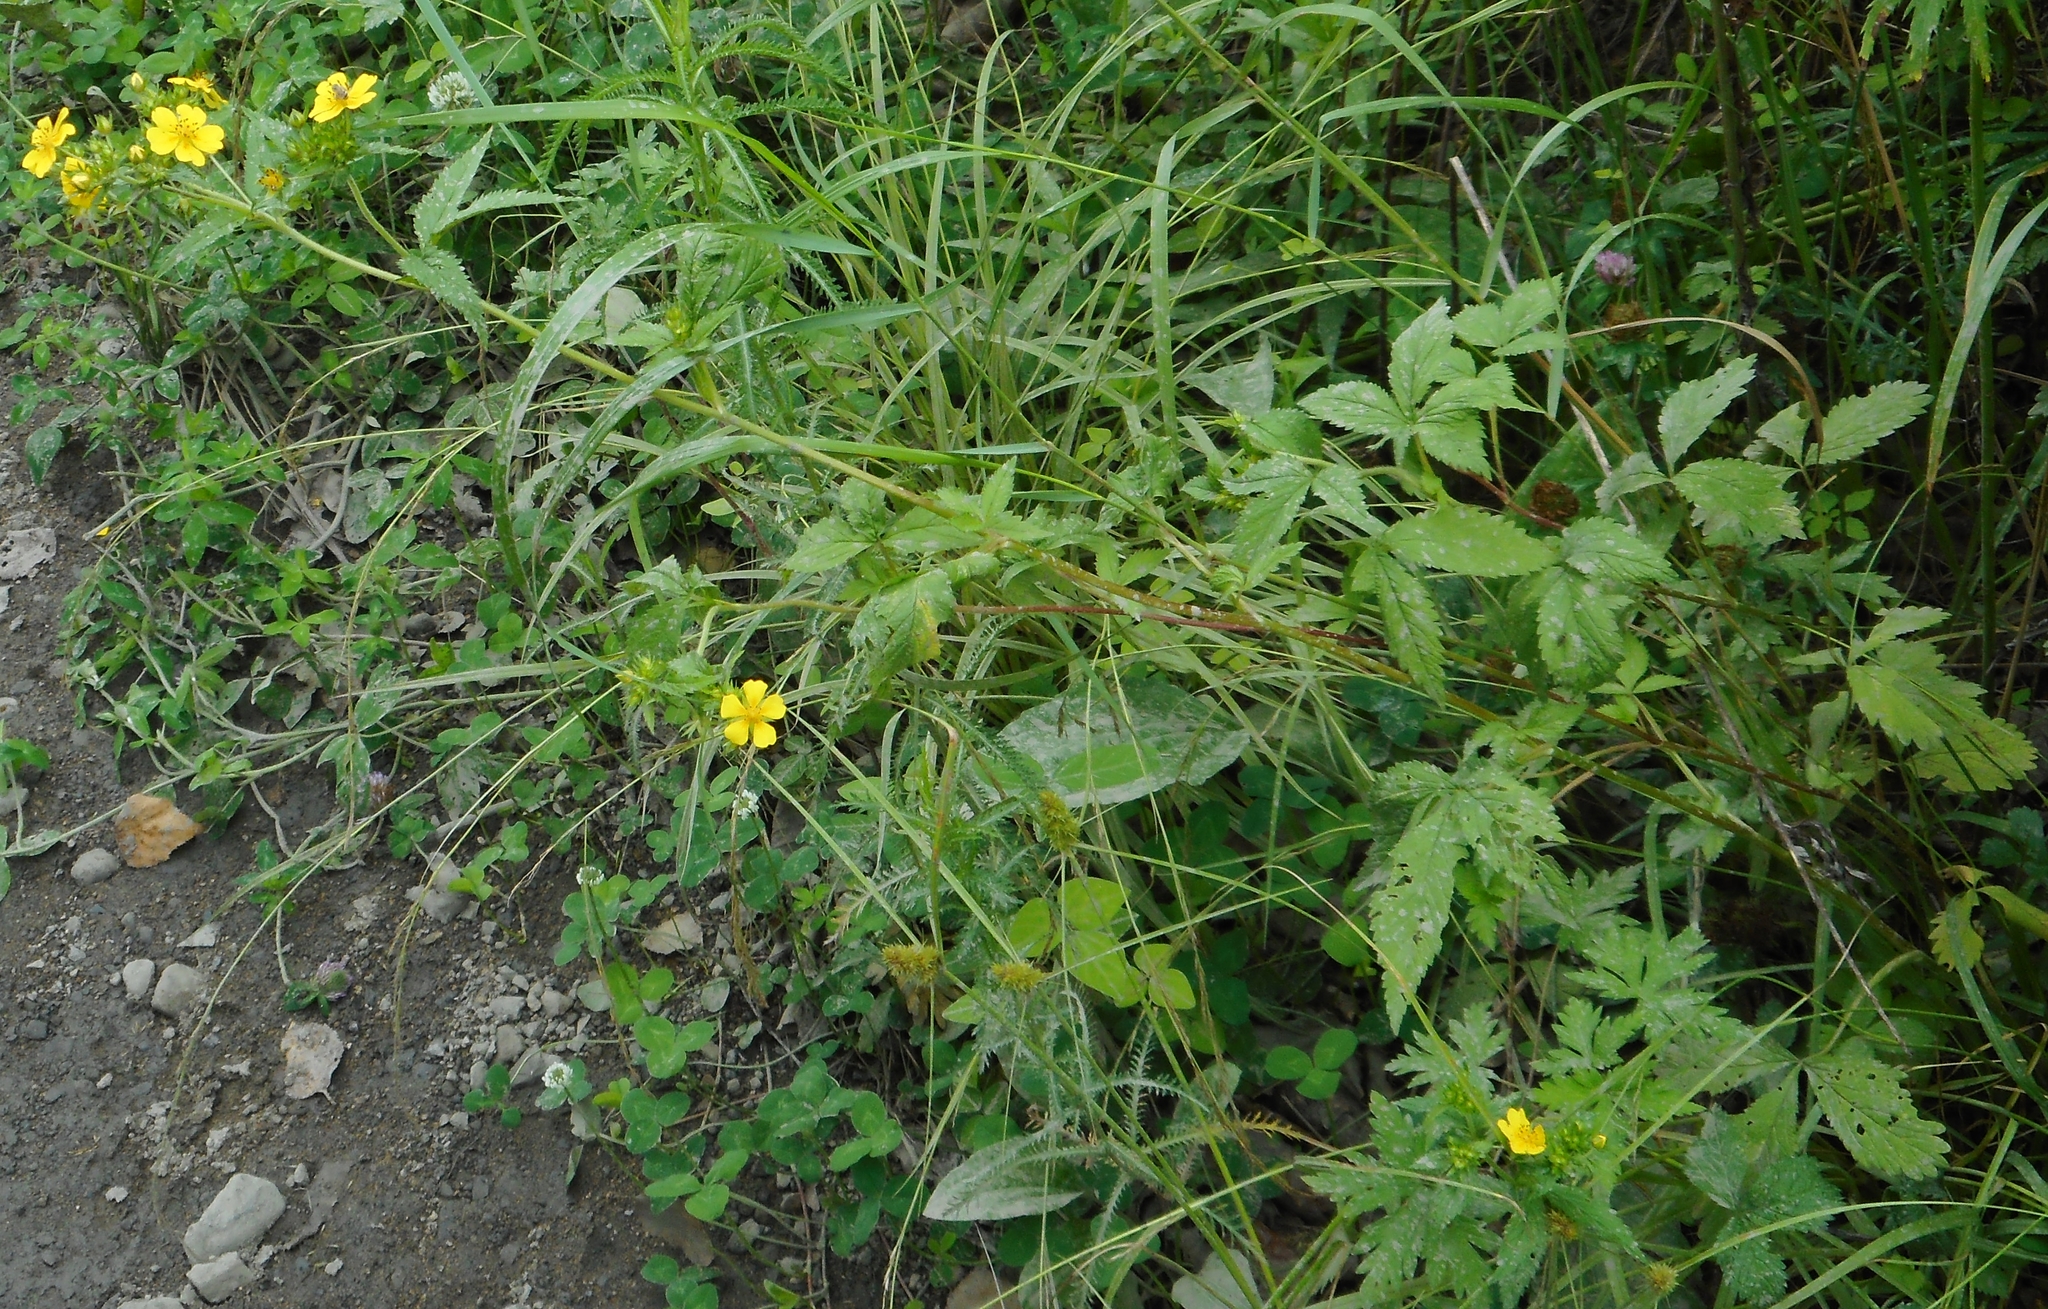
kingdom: Plantae
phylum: Tracheophyta
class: Magnoliopsida
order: Rosales
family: Rosaceae
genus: Potentilla
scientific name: Potentilla cryptotaeniae
